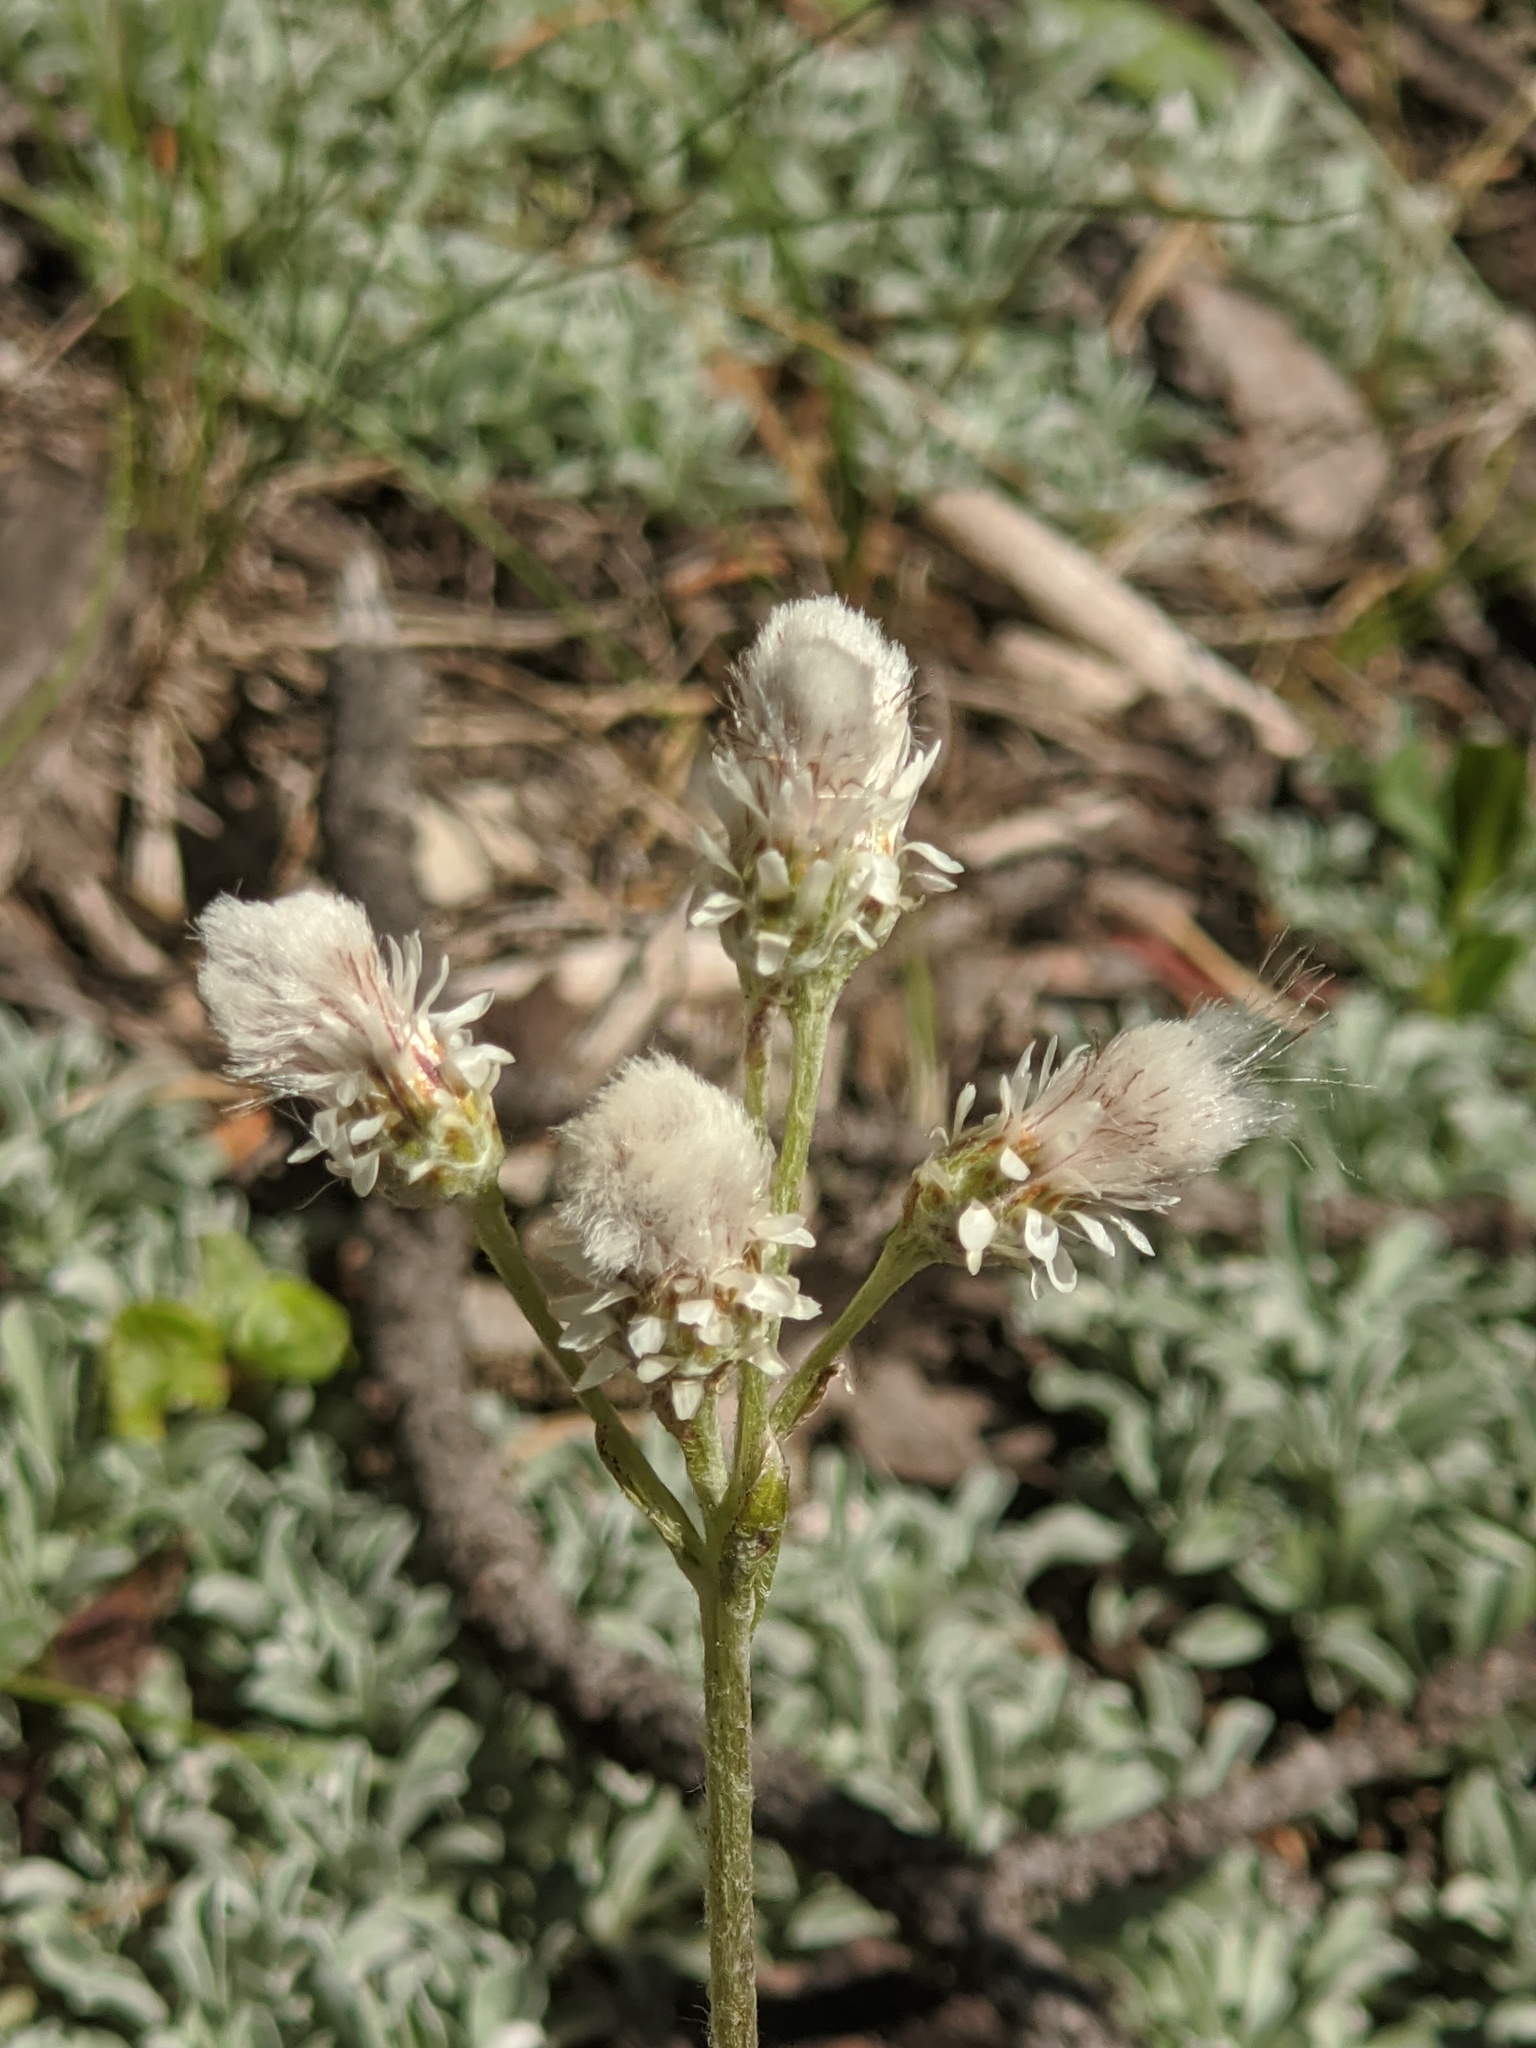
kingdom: Plantae
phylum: Tracheophyta
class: Magnoliopsida
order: Asterales
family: Asteraceae
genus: Antennaria
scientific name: Antennaria dioica
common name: Mountain everlasting
